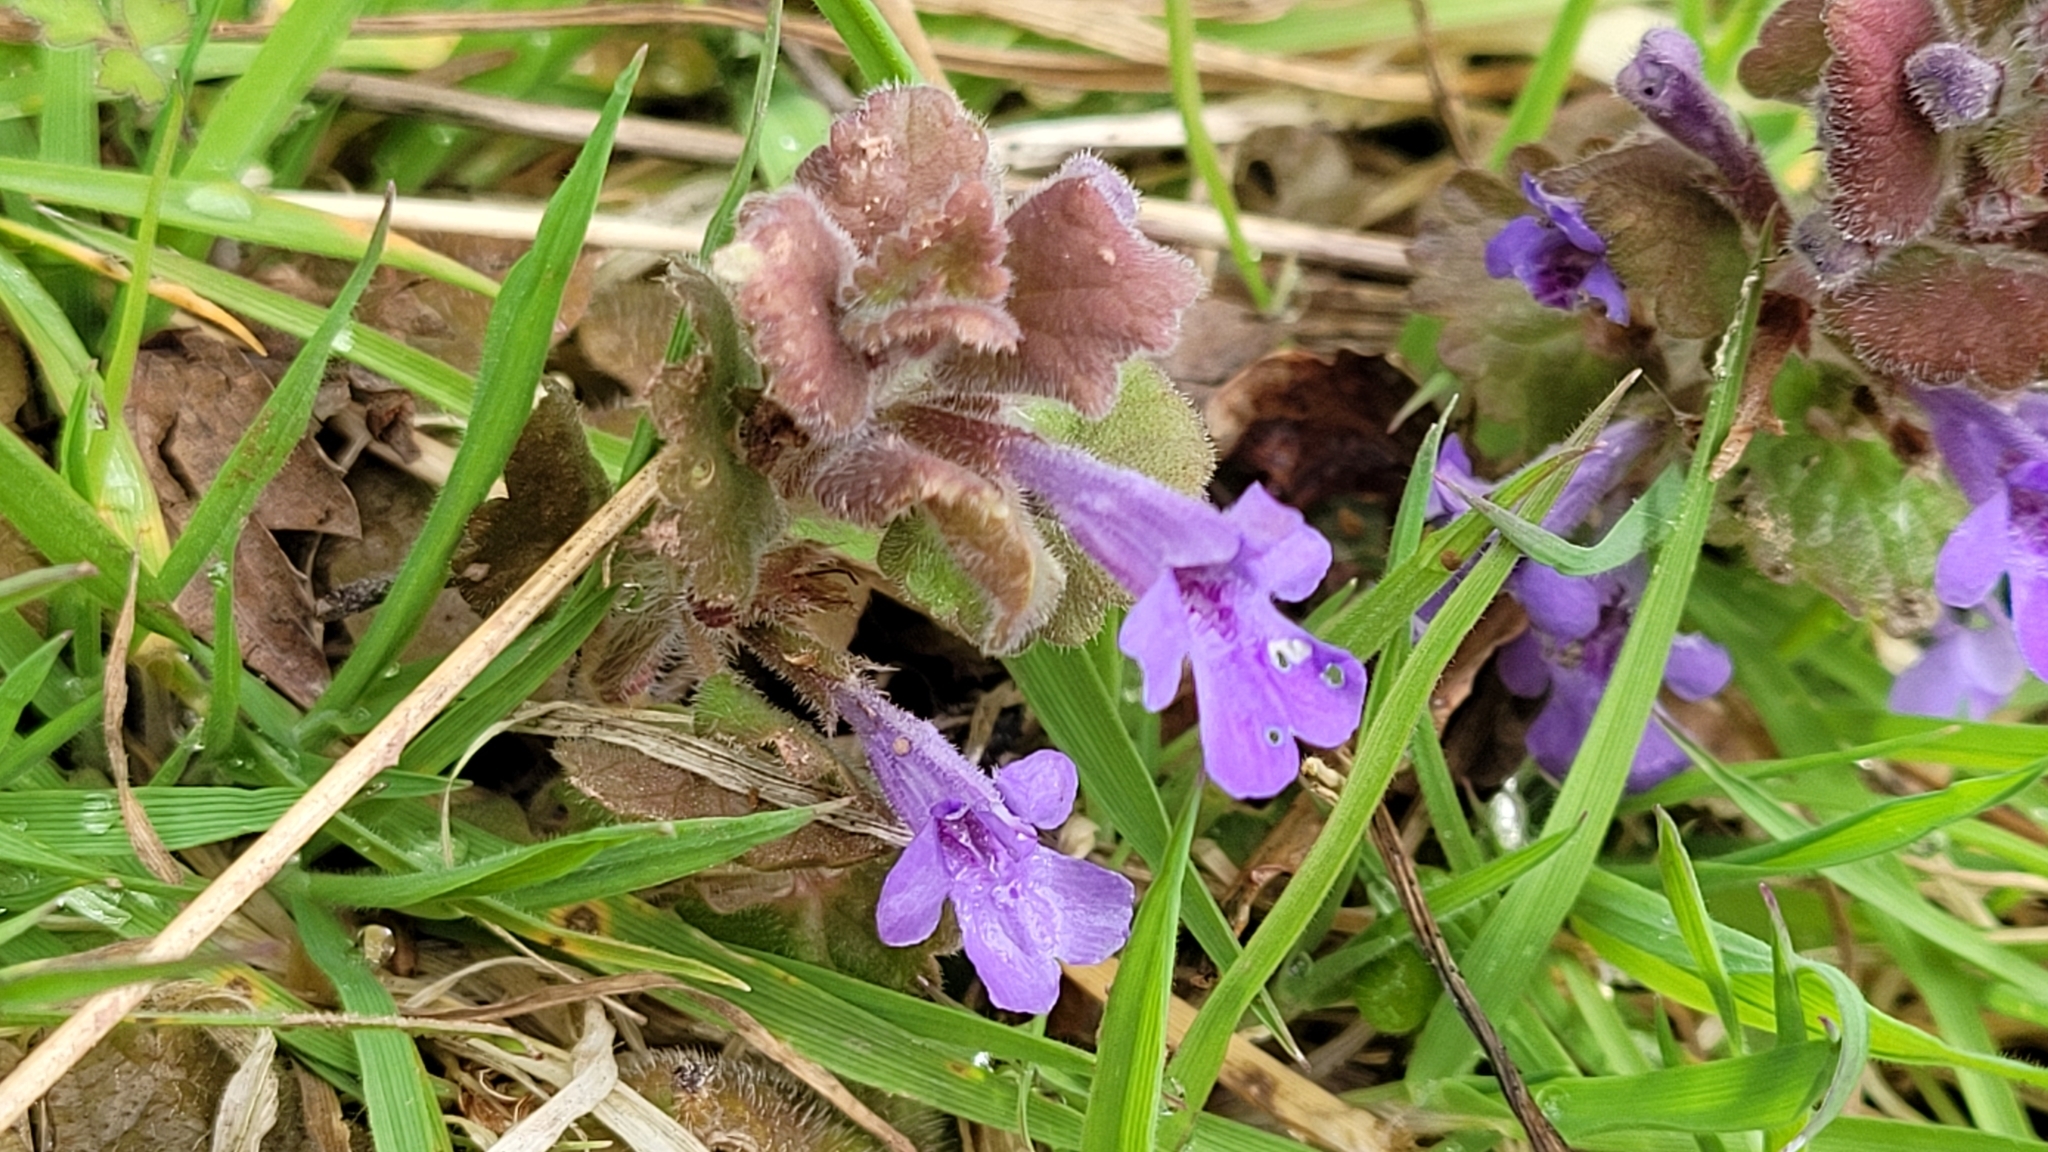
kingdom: Plantae
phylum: Tracheophyta
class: Magnoliopsida
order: Lamiales
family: Lamiaceae
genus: Glechoma
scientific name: Glechoma hederacea
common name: Ground ivy
